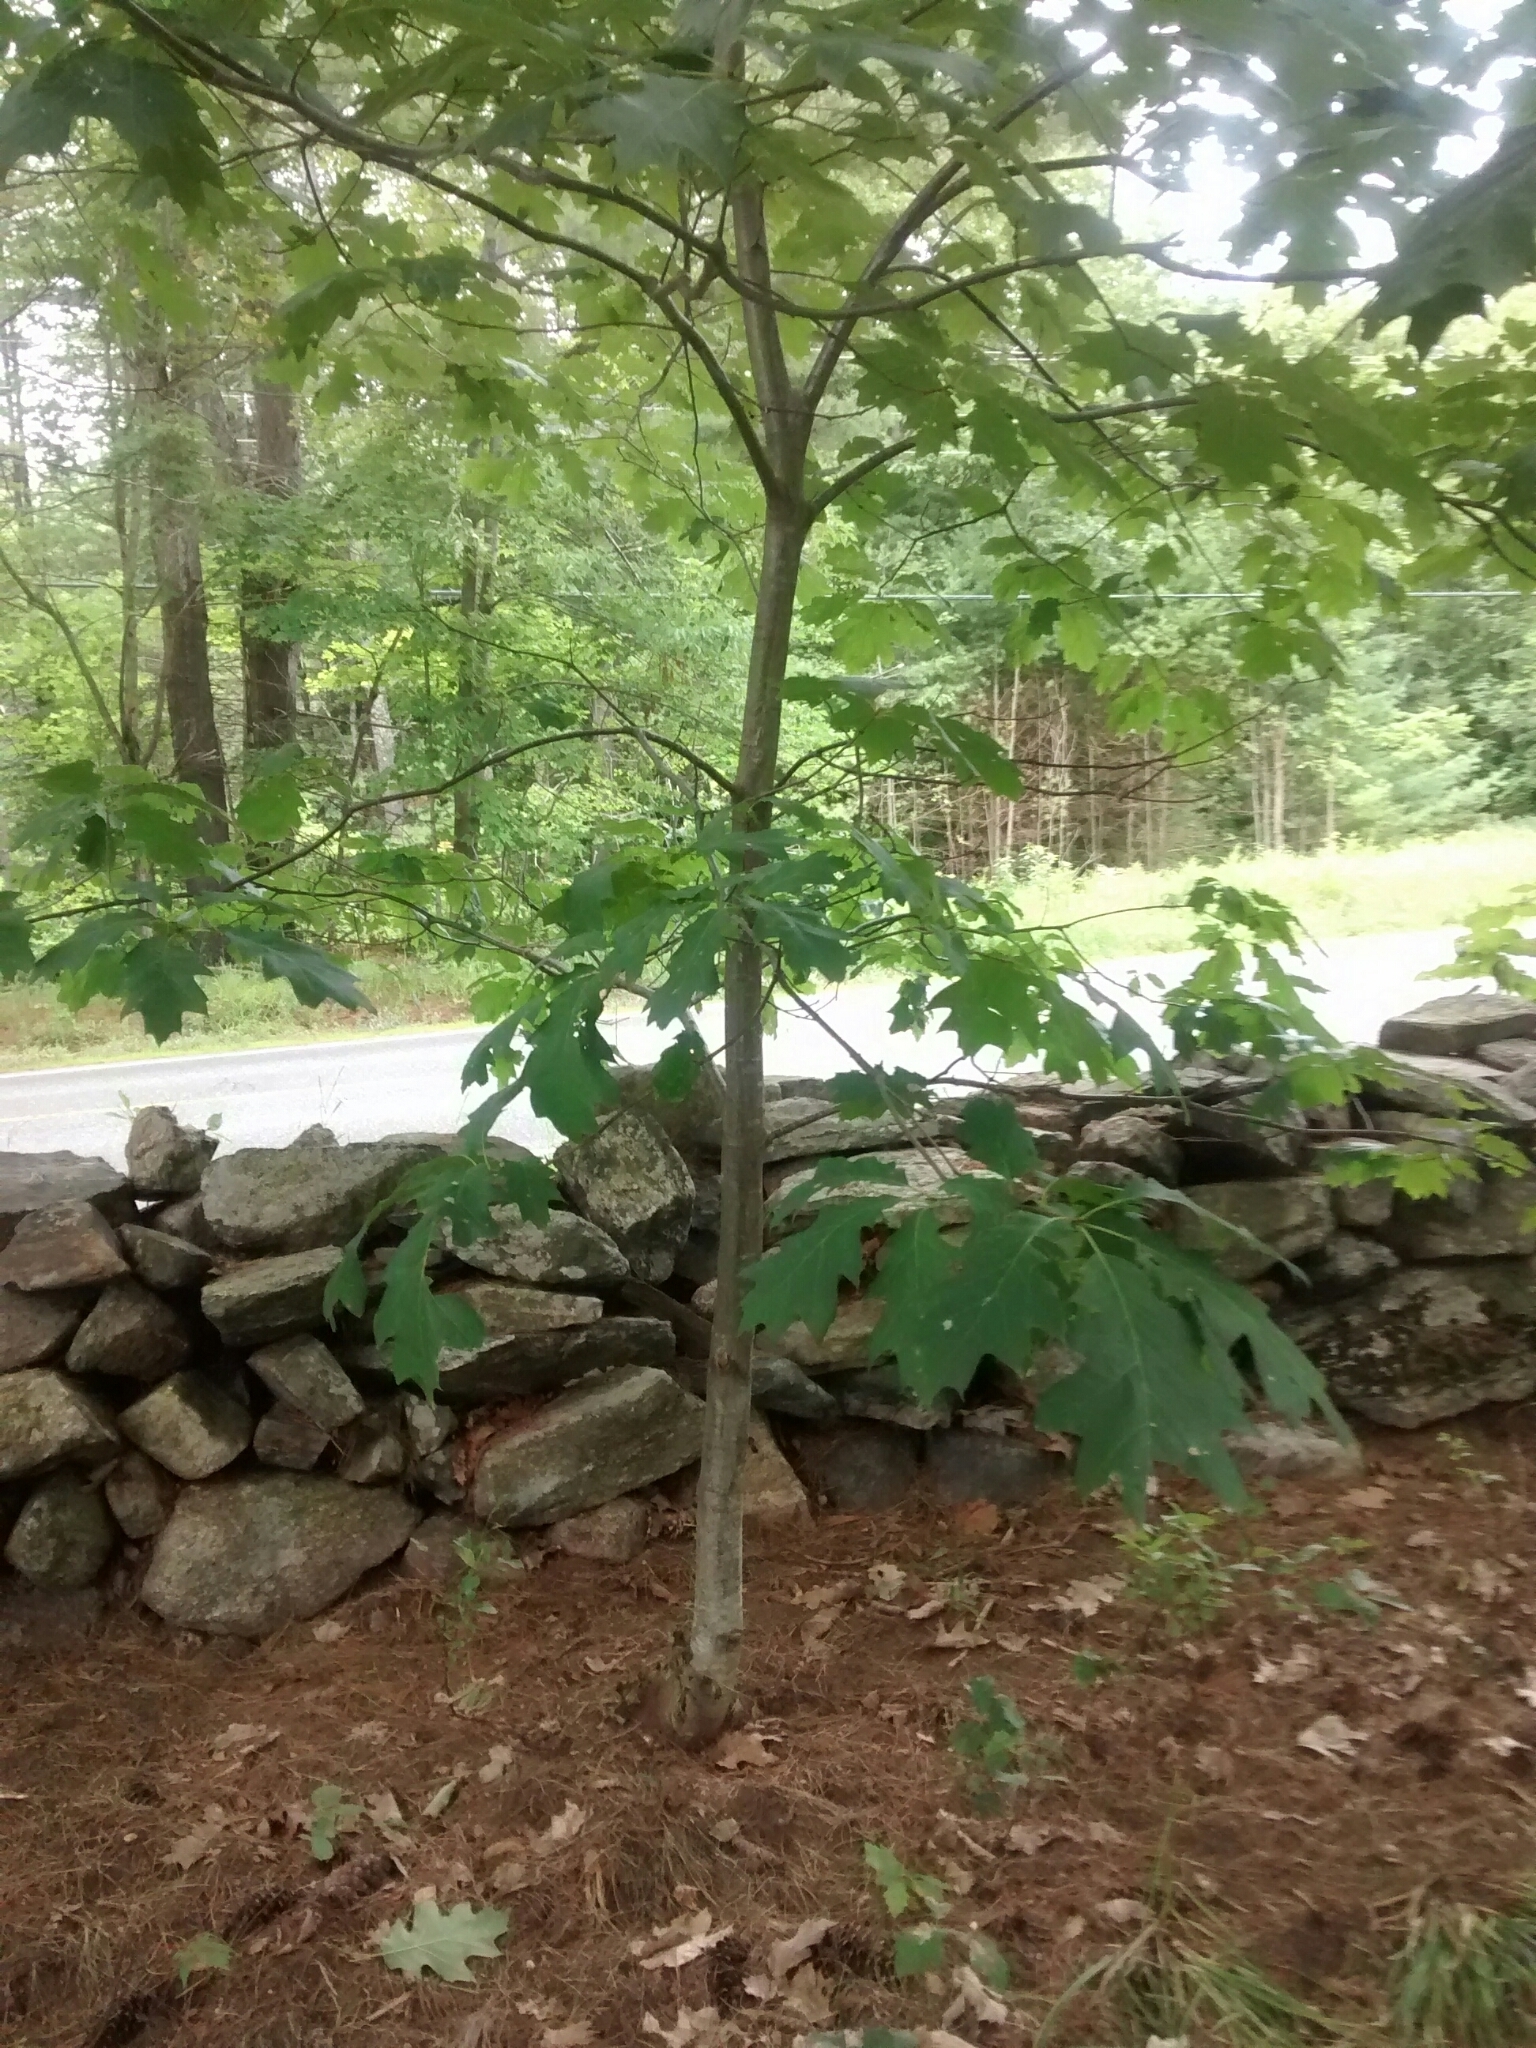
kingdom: Plantae
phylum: Tracheophyta
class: Magnoliopsida
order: Fagales
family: Fagaceae
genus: Quercus
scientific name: Quercus rubra
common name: Red oak
